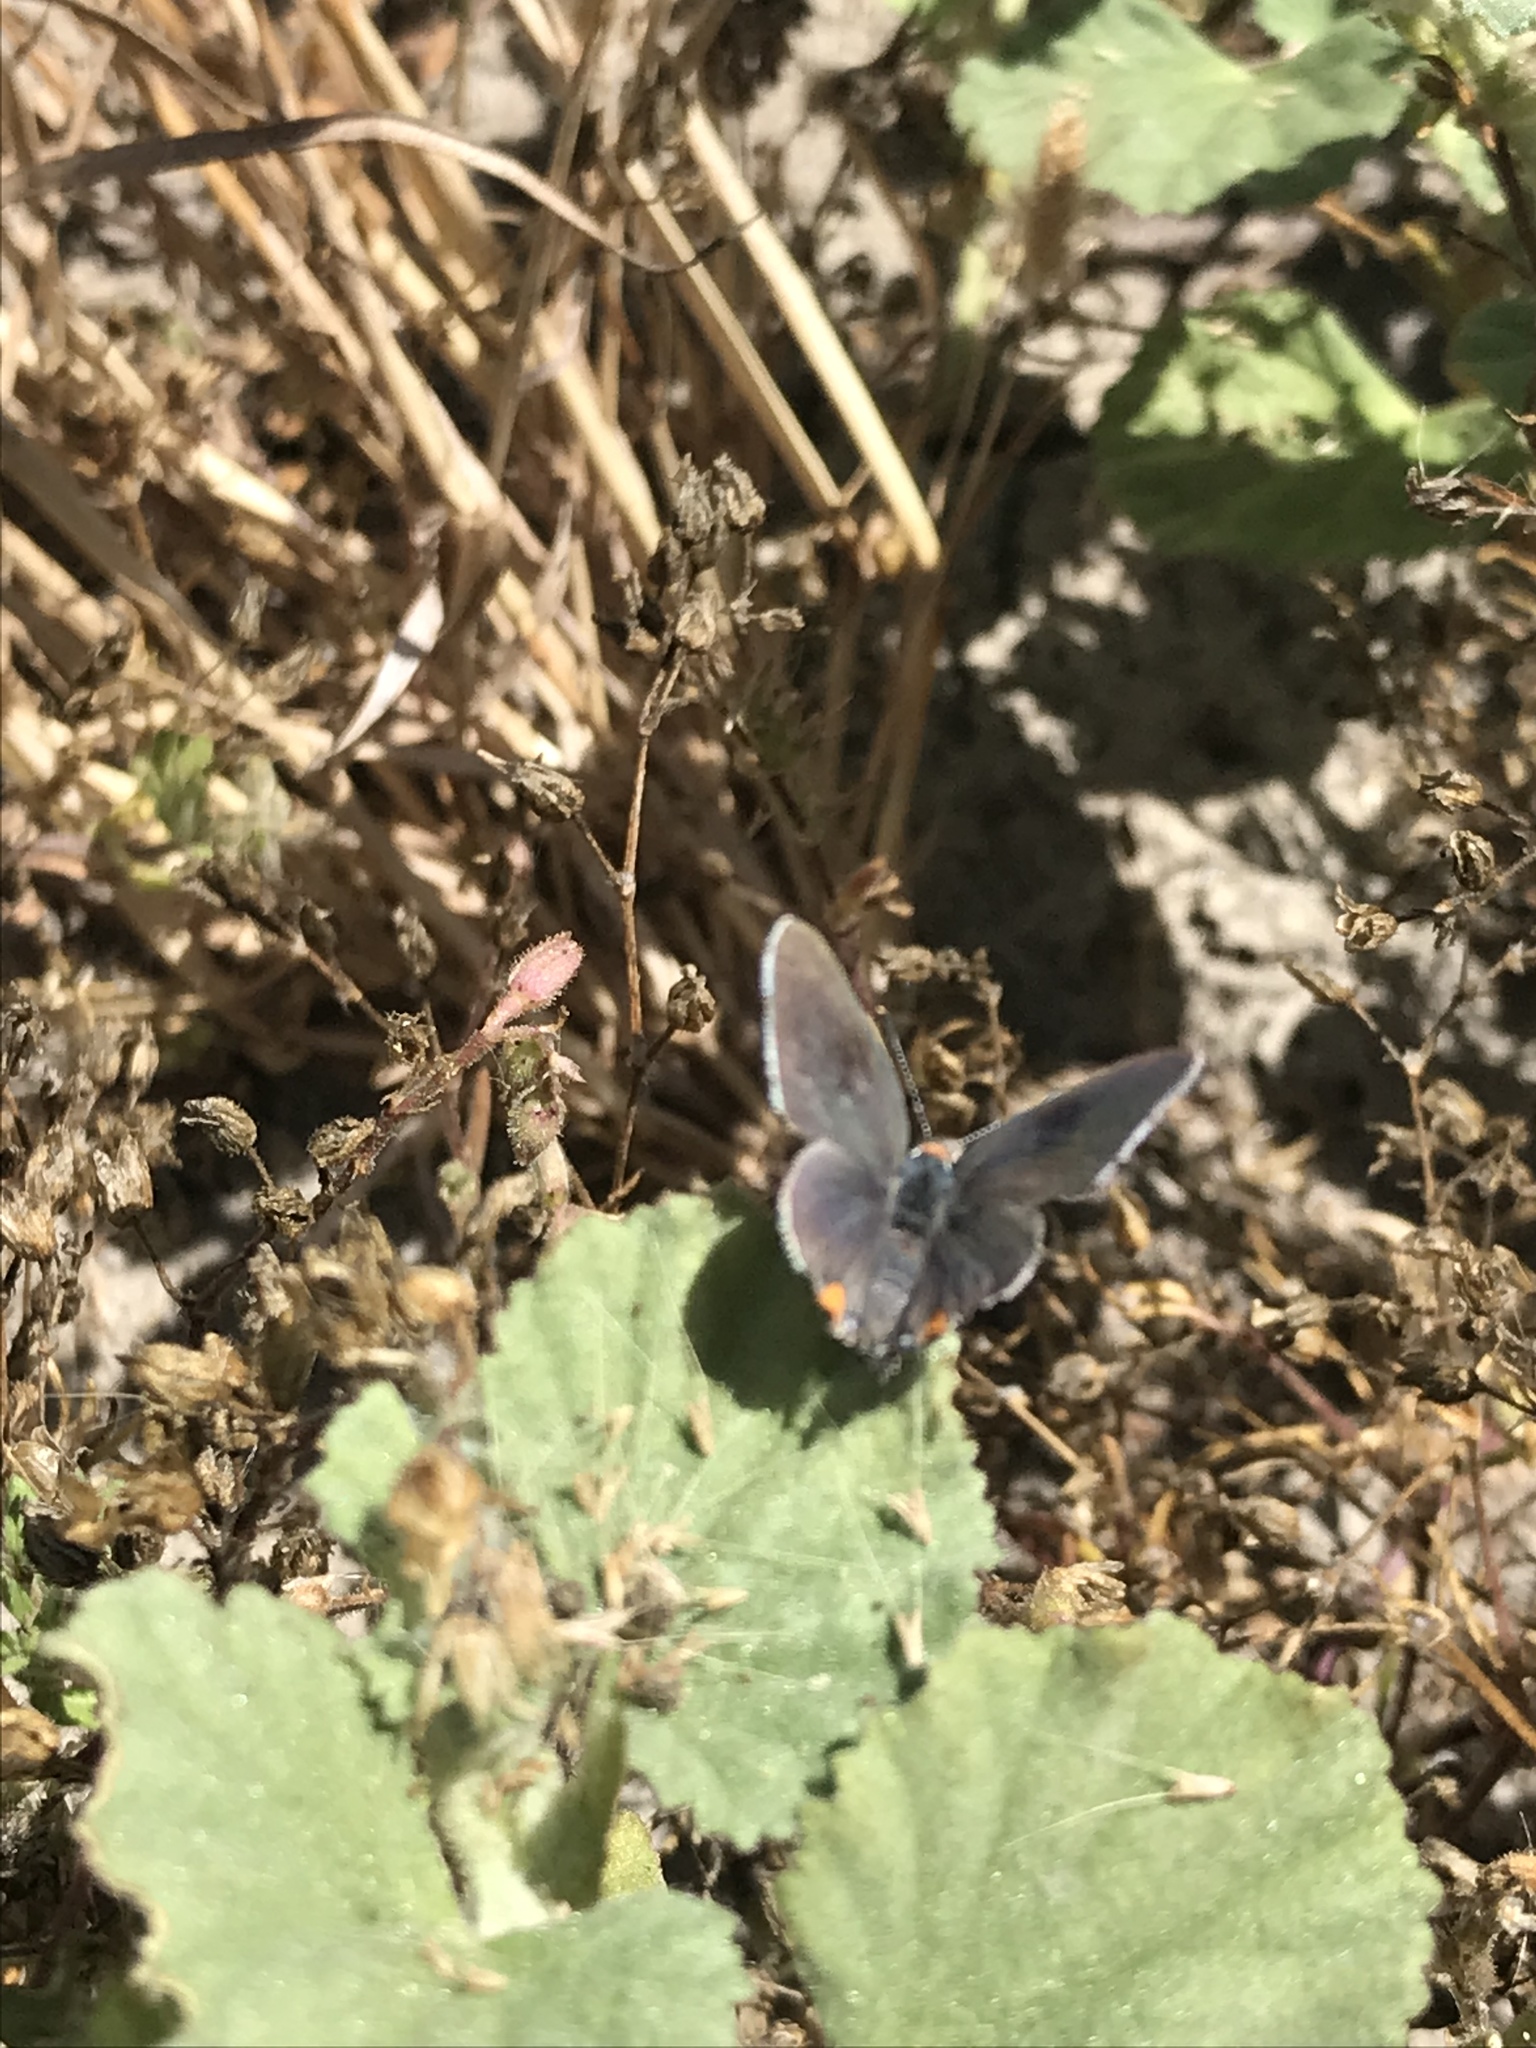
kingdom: Animalia
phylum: Arthropoda
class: Insecta
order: Lepidoptera
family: Lycaenidae
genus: Strymon
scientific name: Strymon melinus
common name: Gray hairstreak
